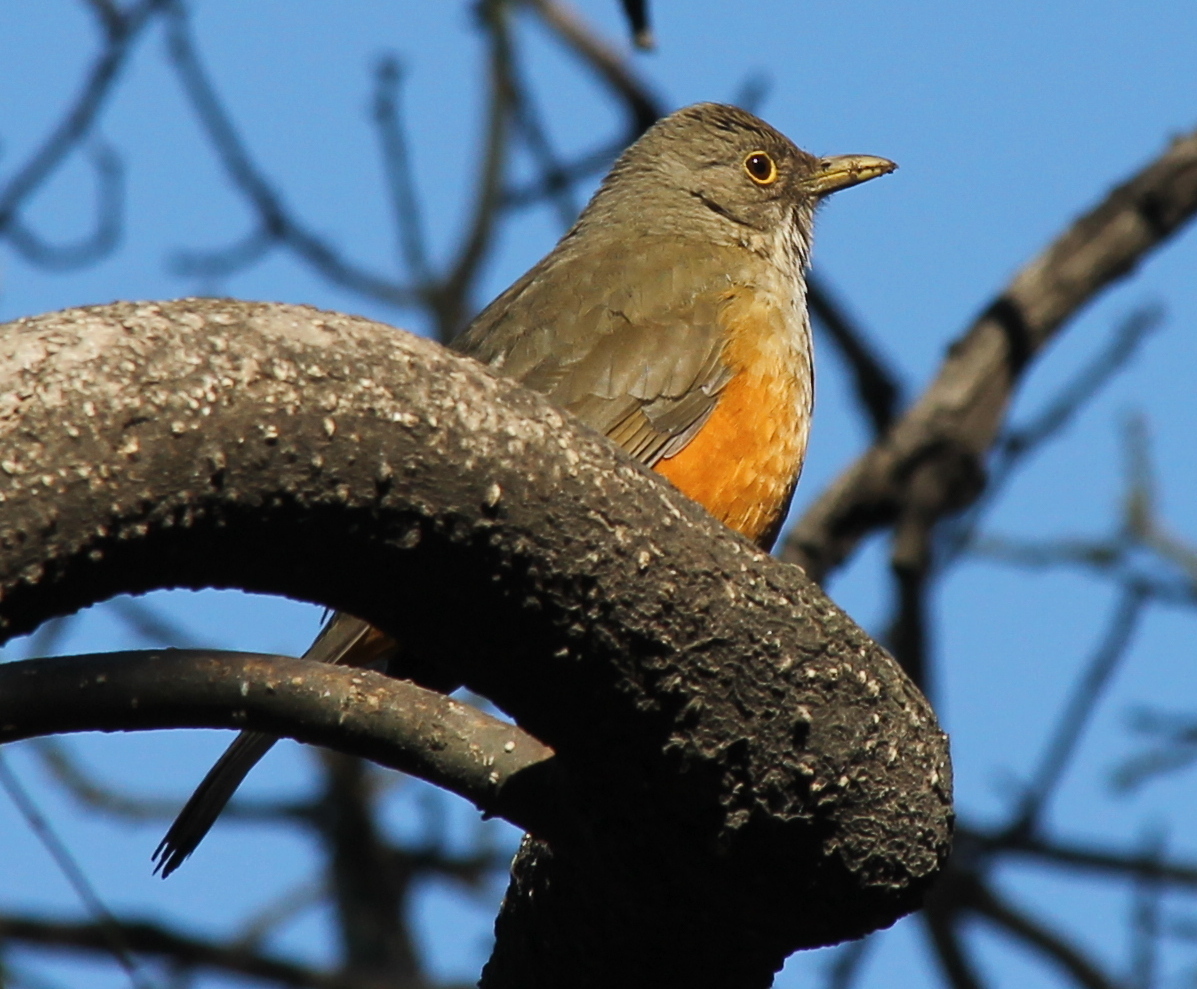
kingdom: Animalia
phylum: Chordata
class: Aves
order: Passeriformes
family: Turdidae
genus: Turdus
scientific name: Turdus rufiventris
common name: Rufous-bellied thrush
